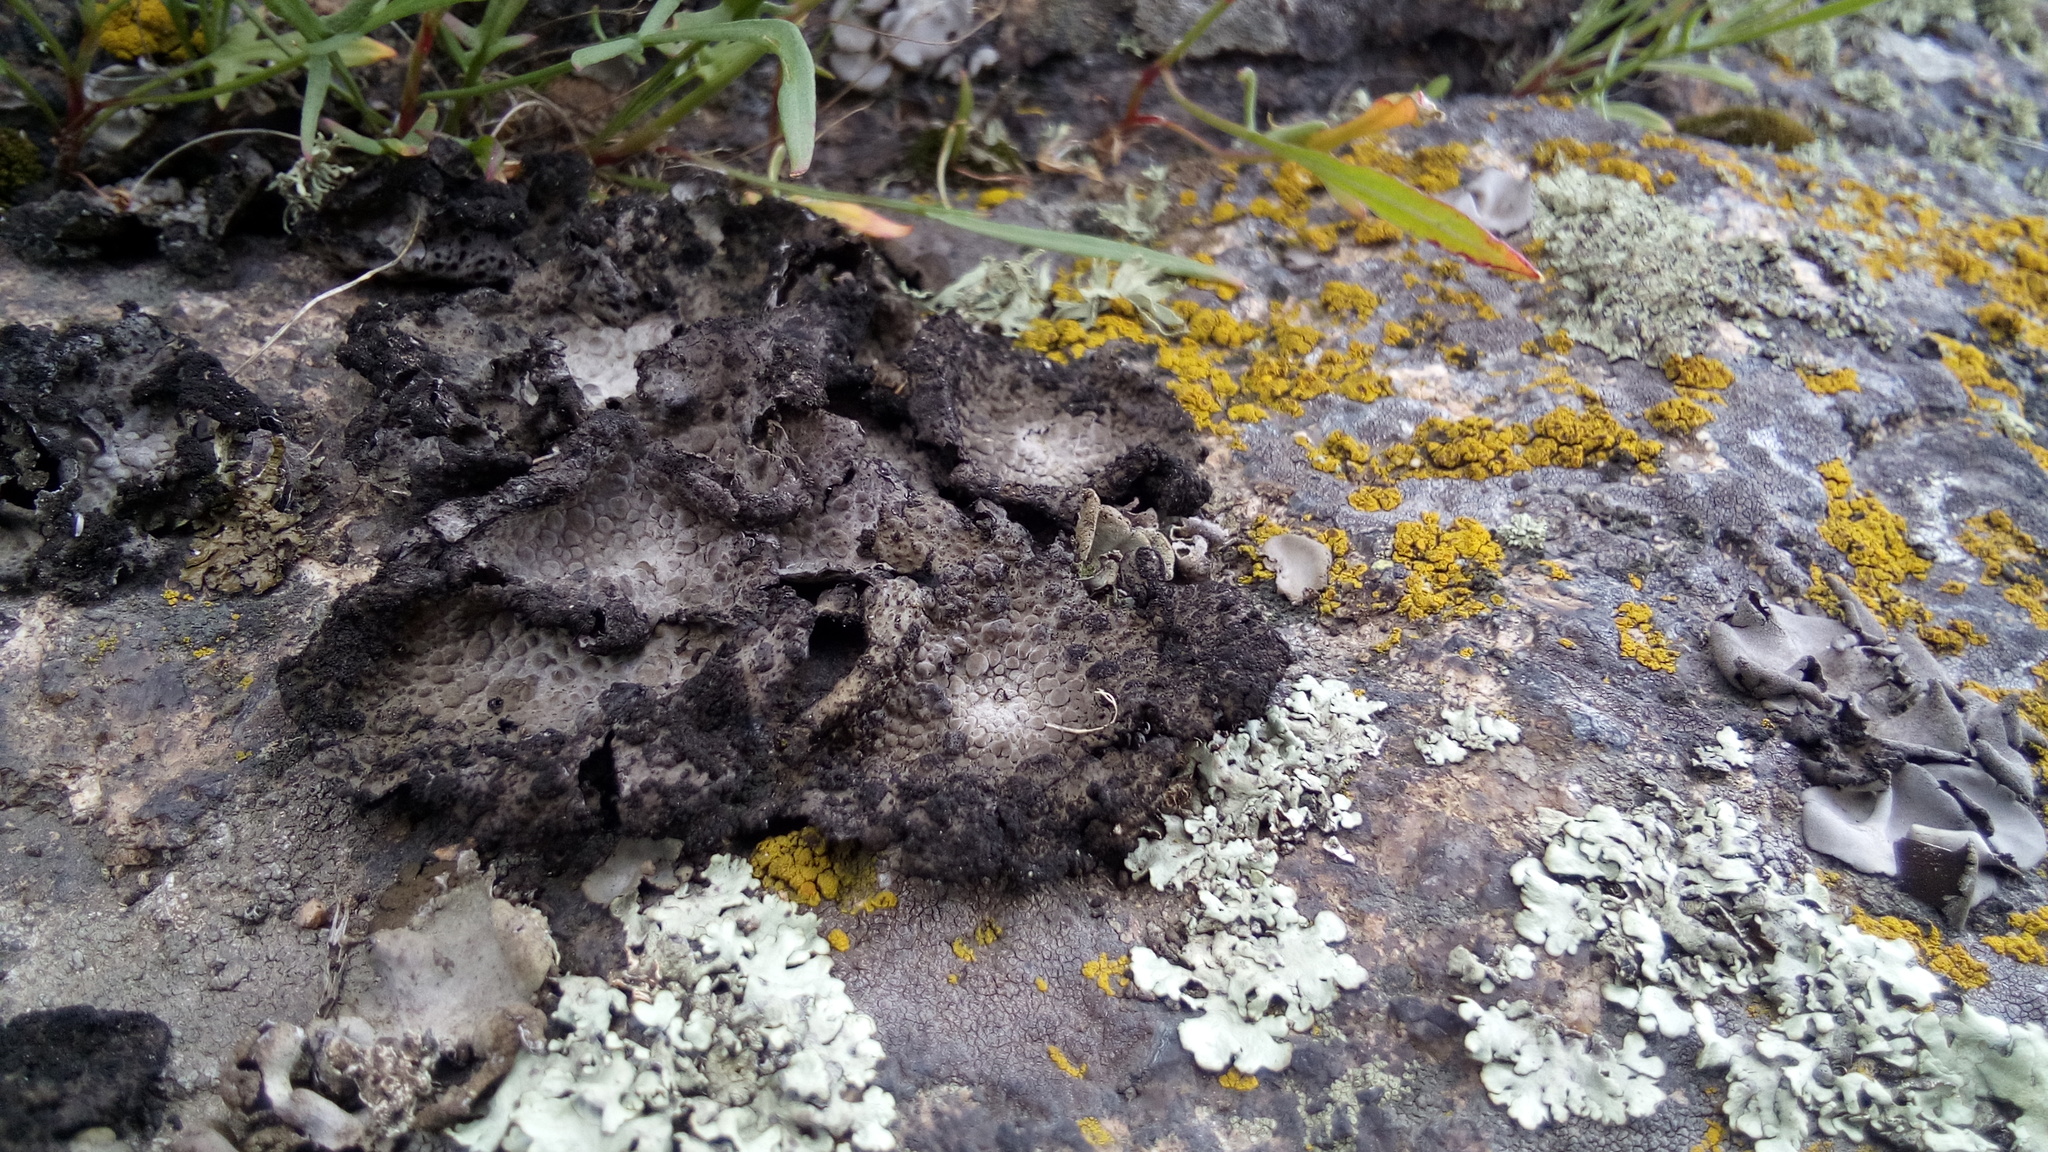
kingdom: Fungi
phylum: Ascomycota
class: Lecanoromycetes
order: Umbilicariales
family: Umbilicariaceae
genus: Lasallia
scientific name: Lasallia pustulata
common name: Blistered toadskin lichen
